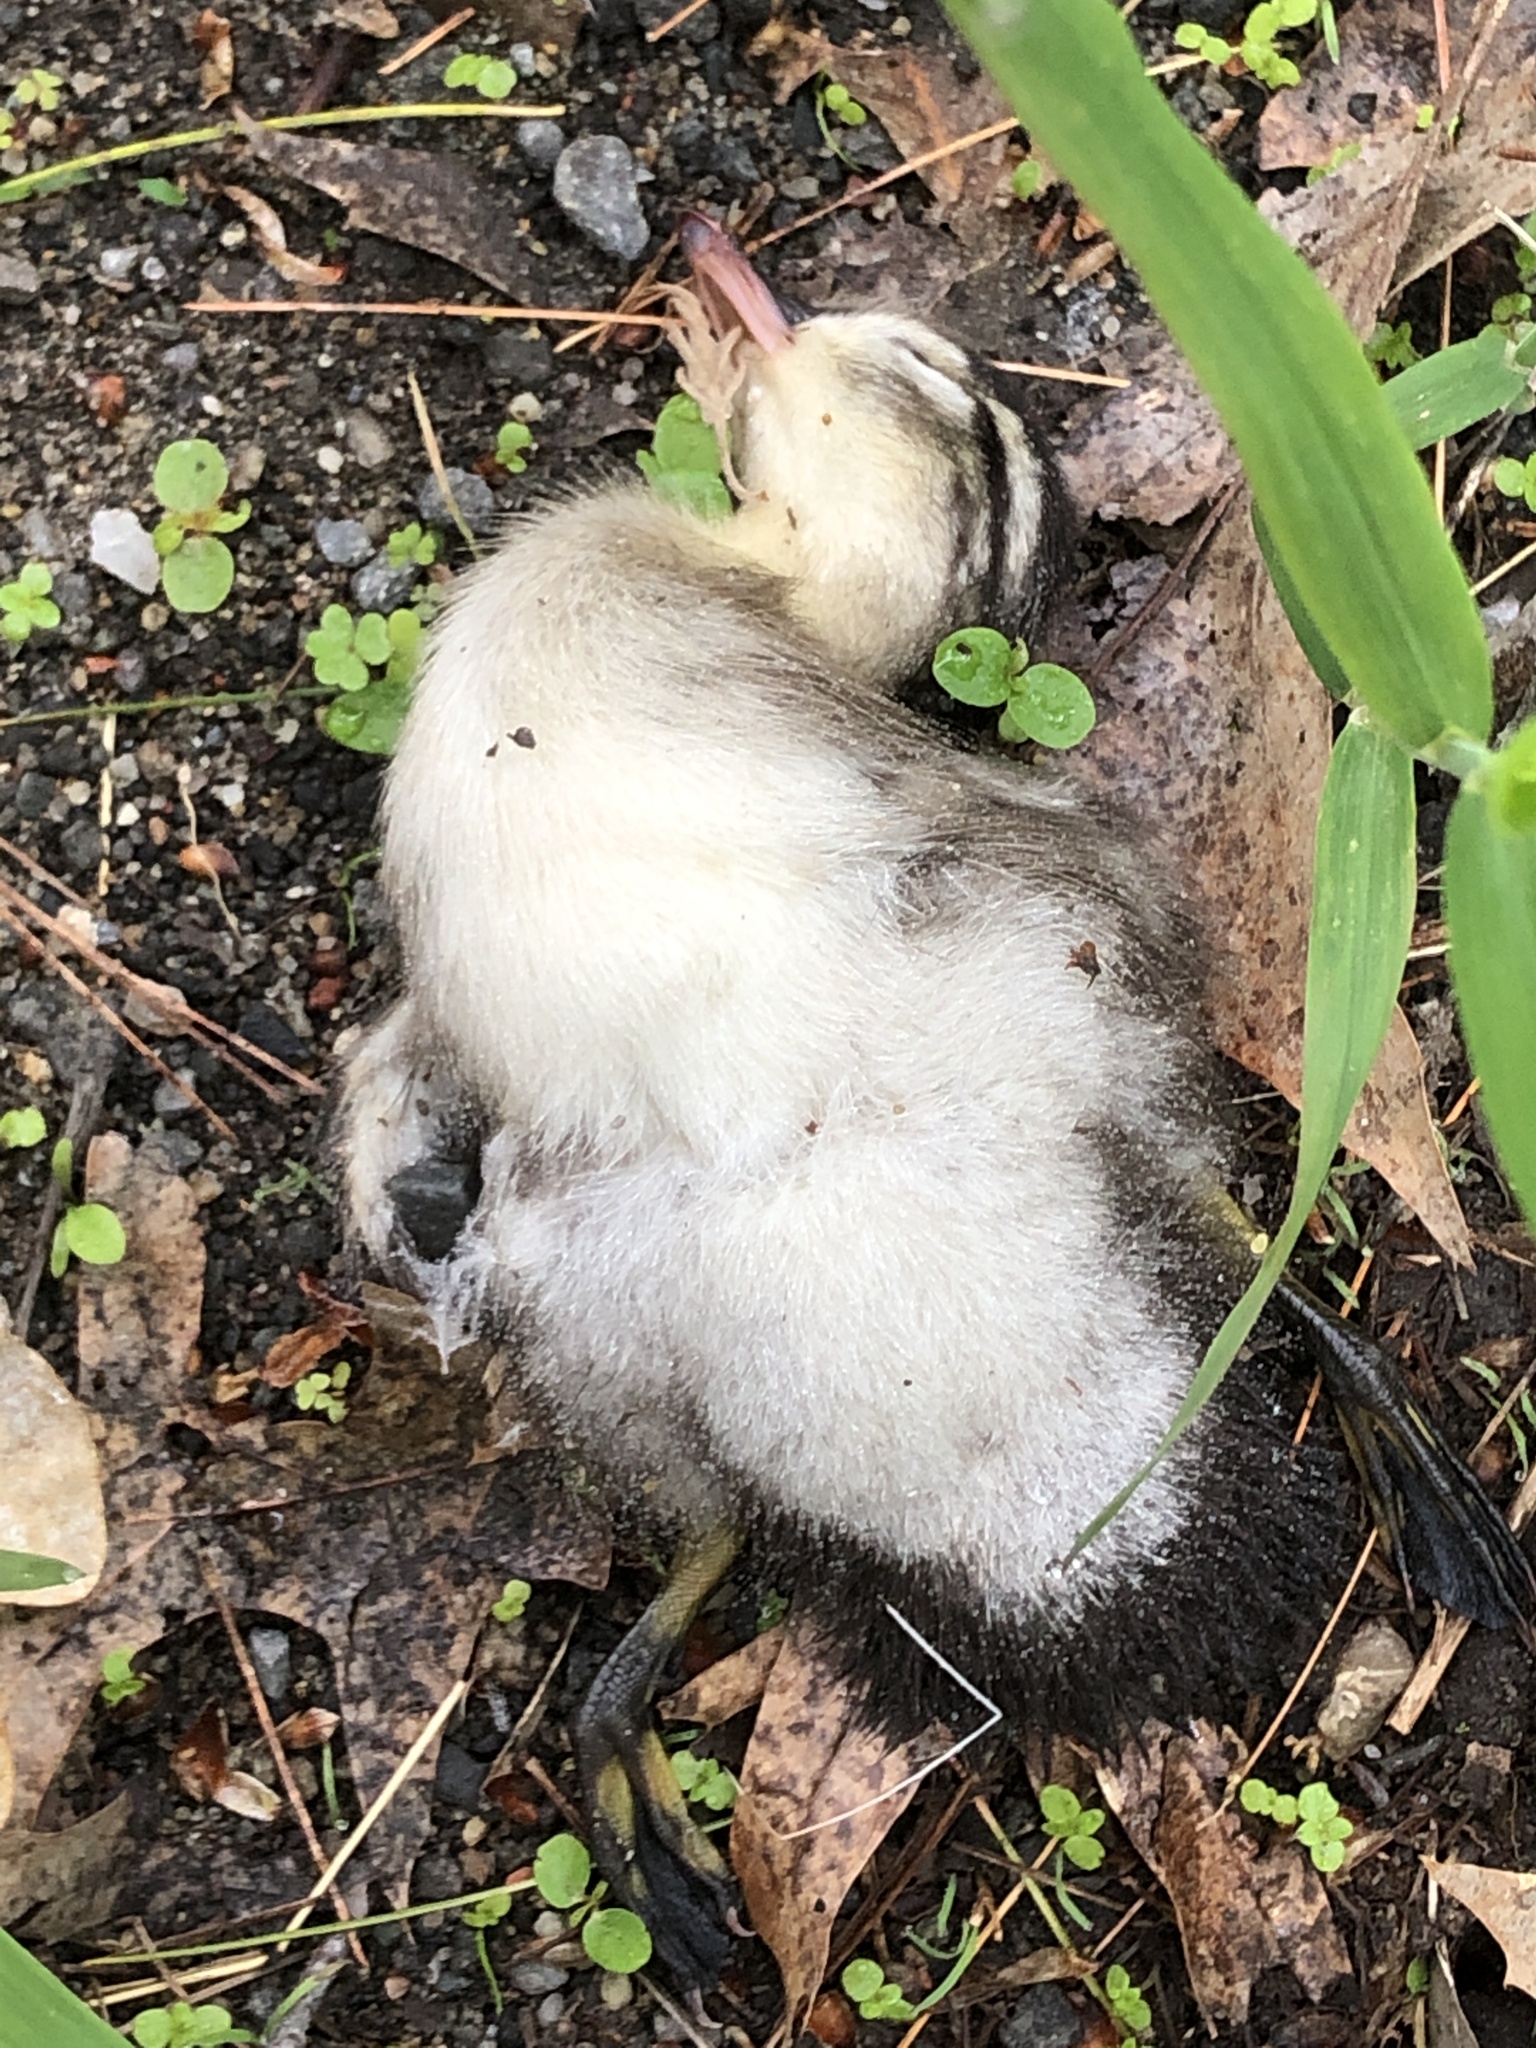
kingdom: Animalia
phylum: Chordata
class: Aves
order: Anseriformes
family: Anatidae
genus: Aix
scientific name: Aix sponsa
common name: Wood duck
